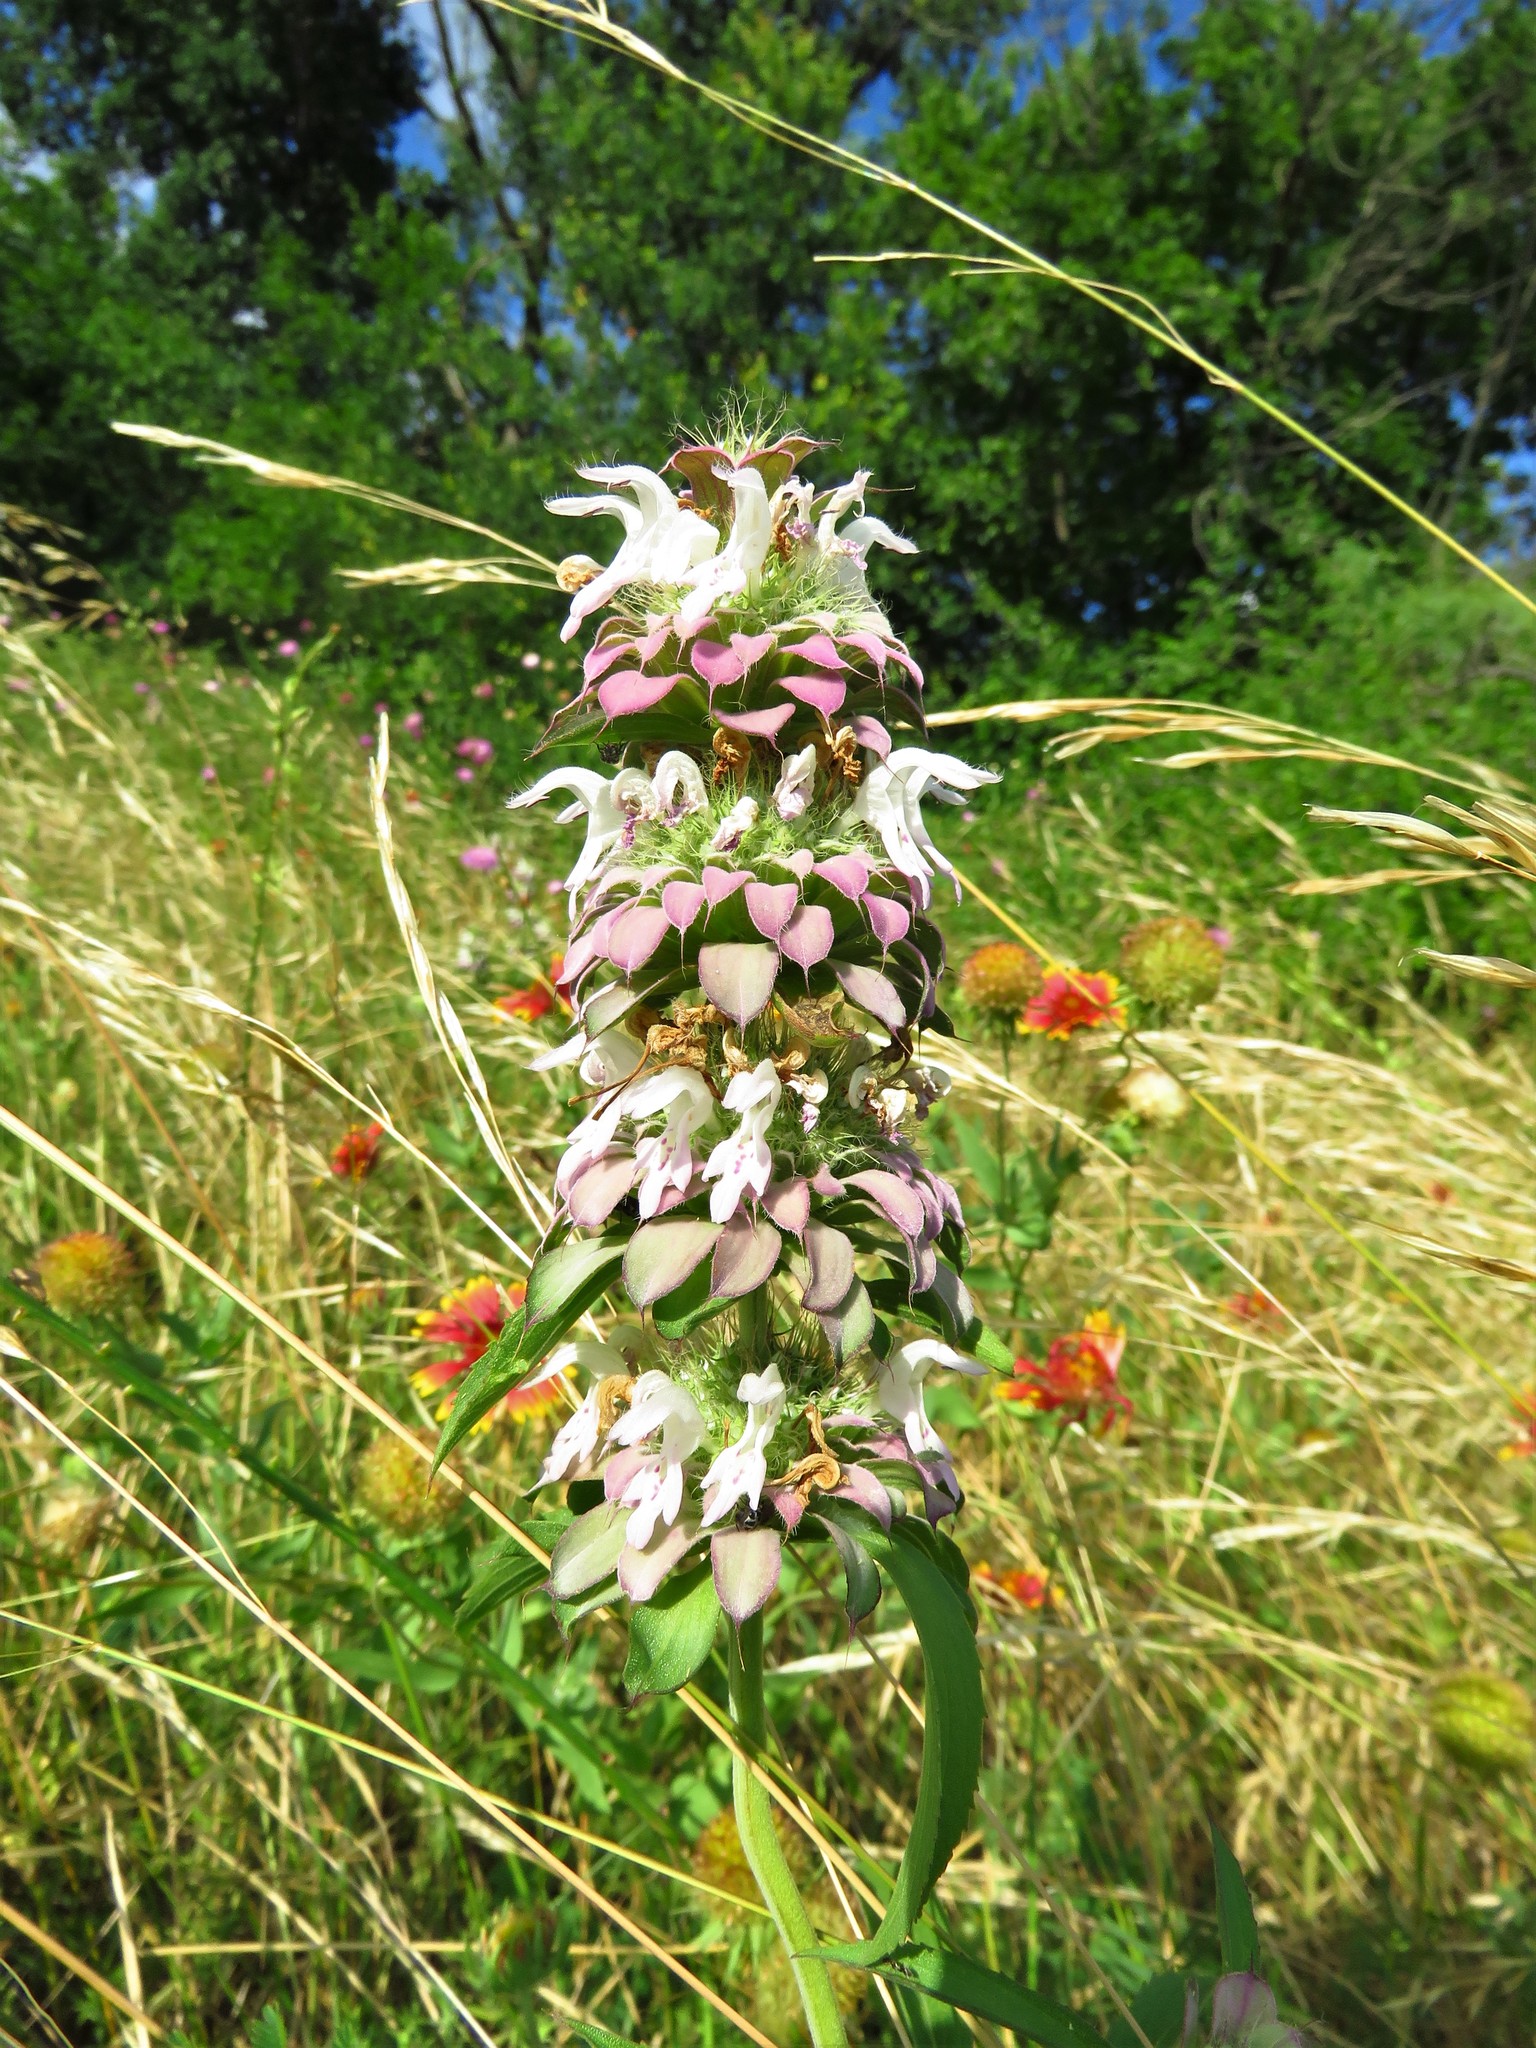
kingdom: Plantae
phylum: Tracheophyta
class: Magnoliopsida
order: Lamiales
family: Lamiaceae
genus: Monarda
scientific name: Monarda citriodora
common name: Lemon beebalm
